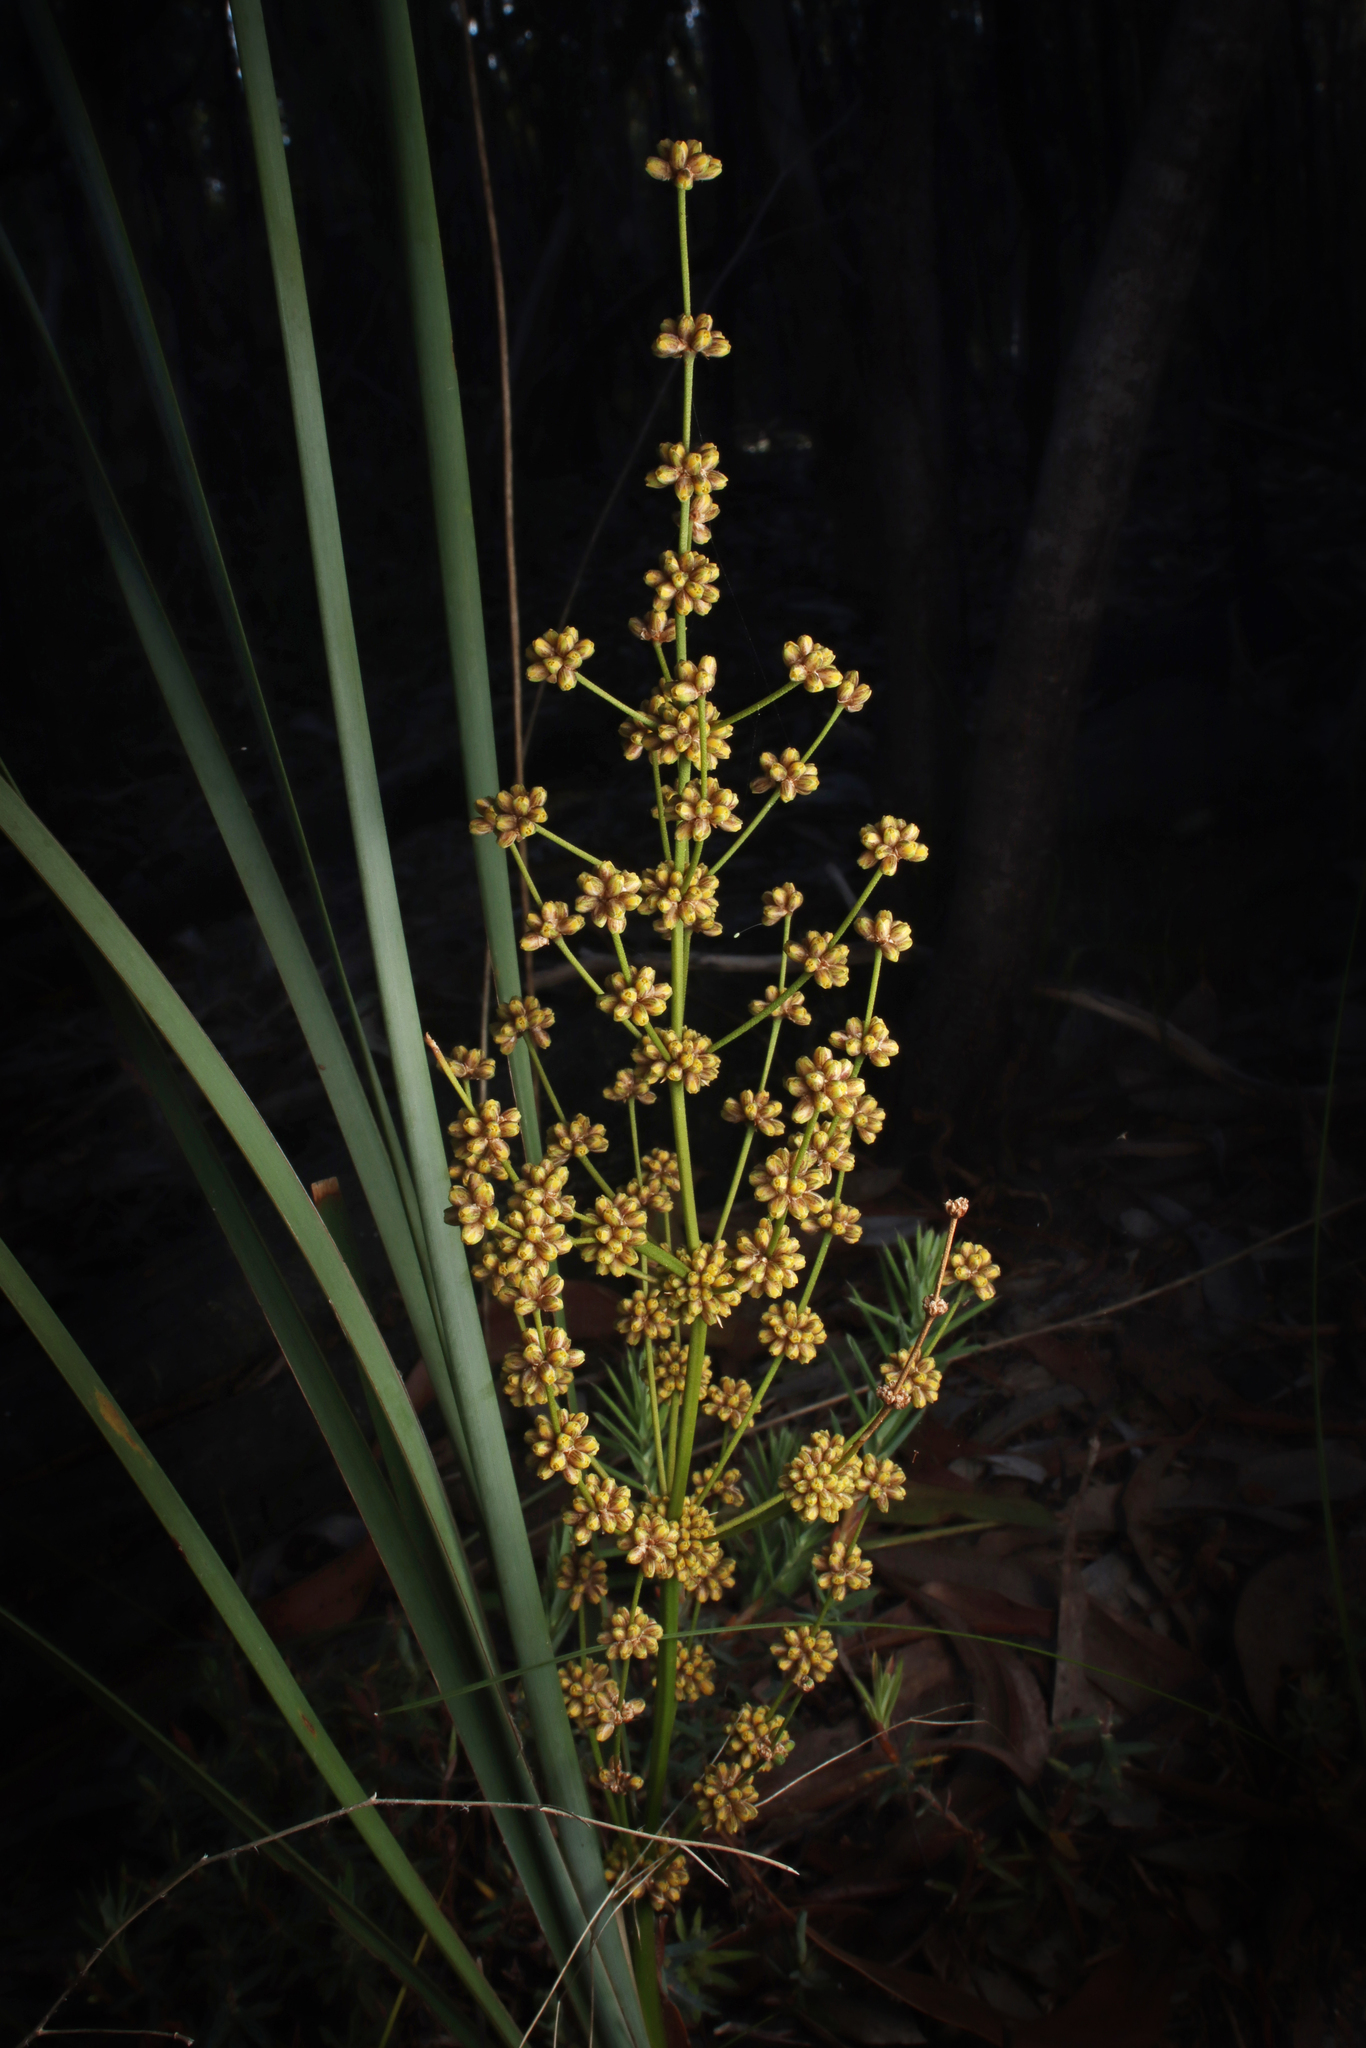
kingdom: Plantae
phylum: Tracheophyta
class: Liliopsida
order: Asparagales
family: Asparagaceae
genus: Lomandra
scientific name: Lomandra multiflora
